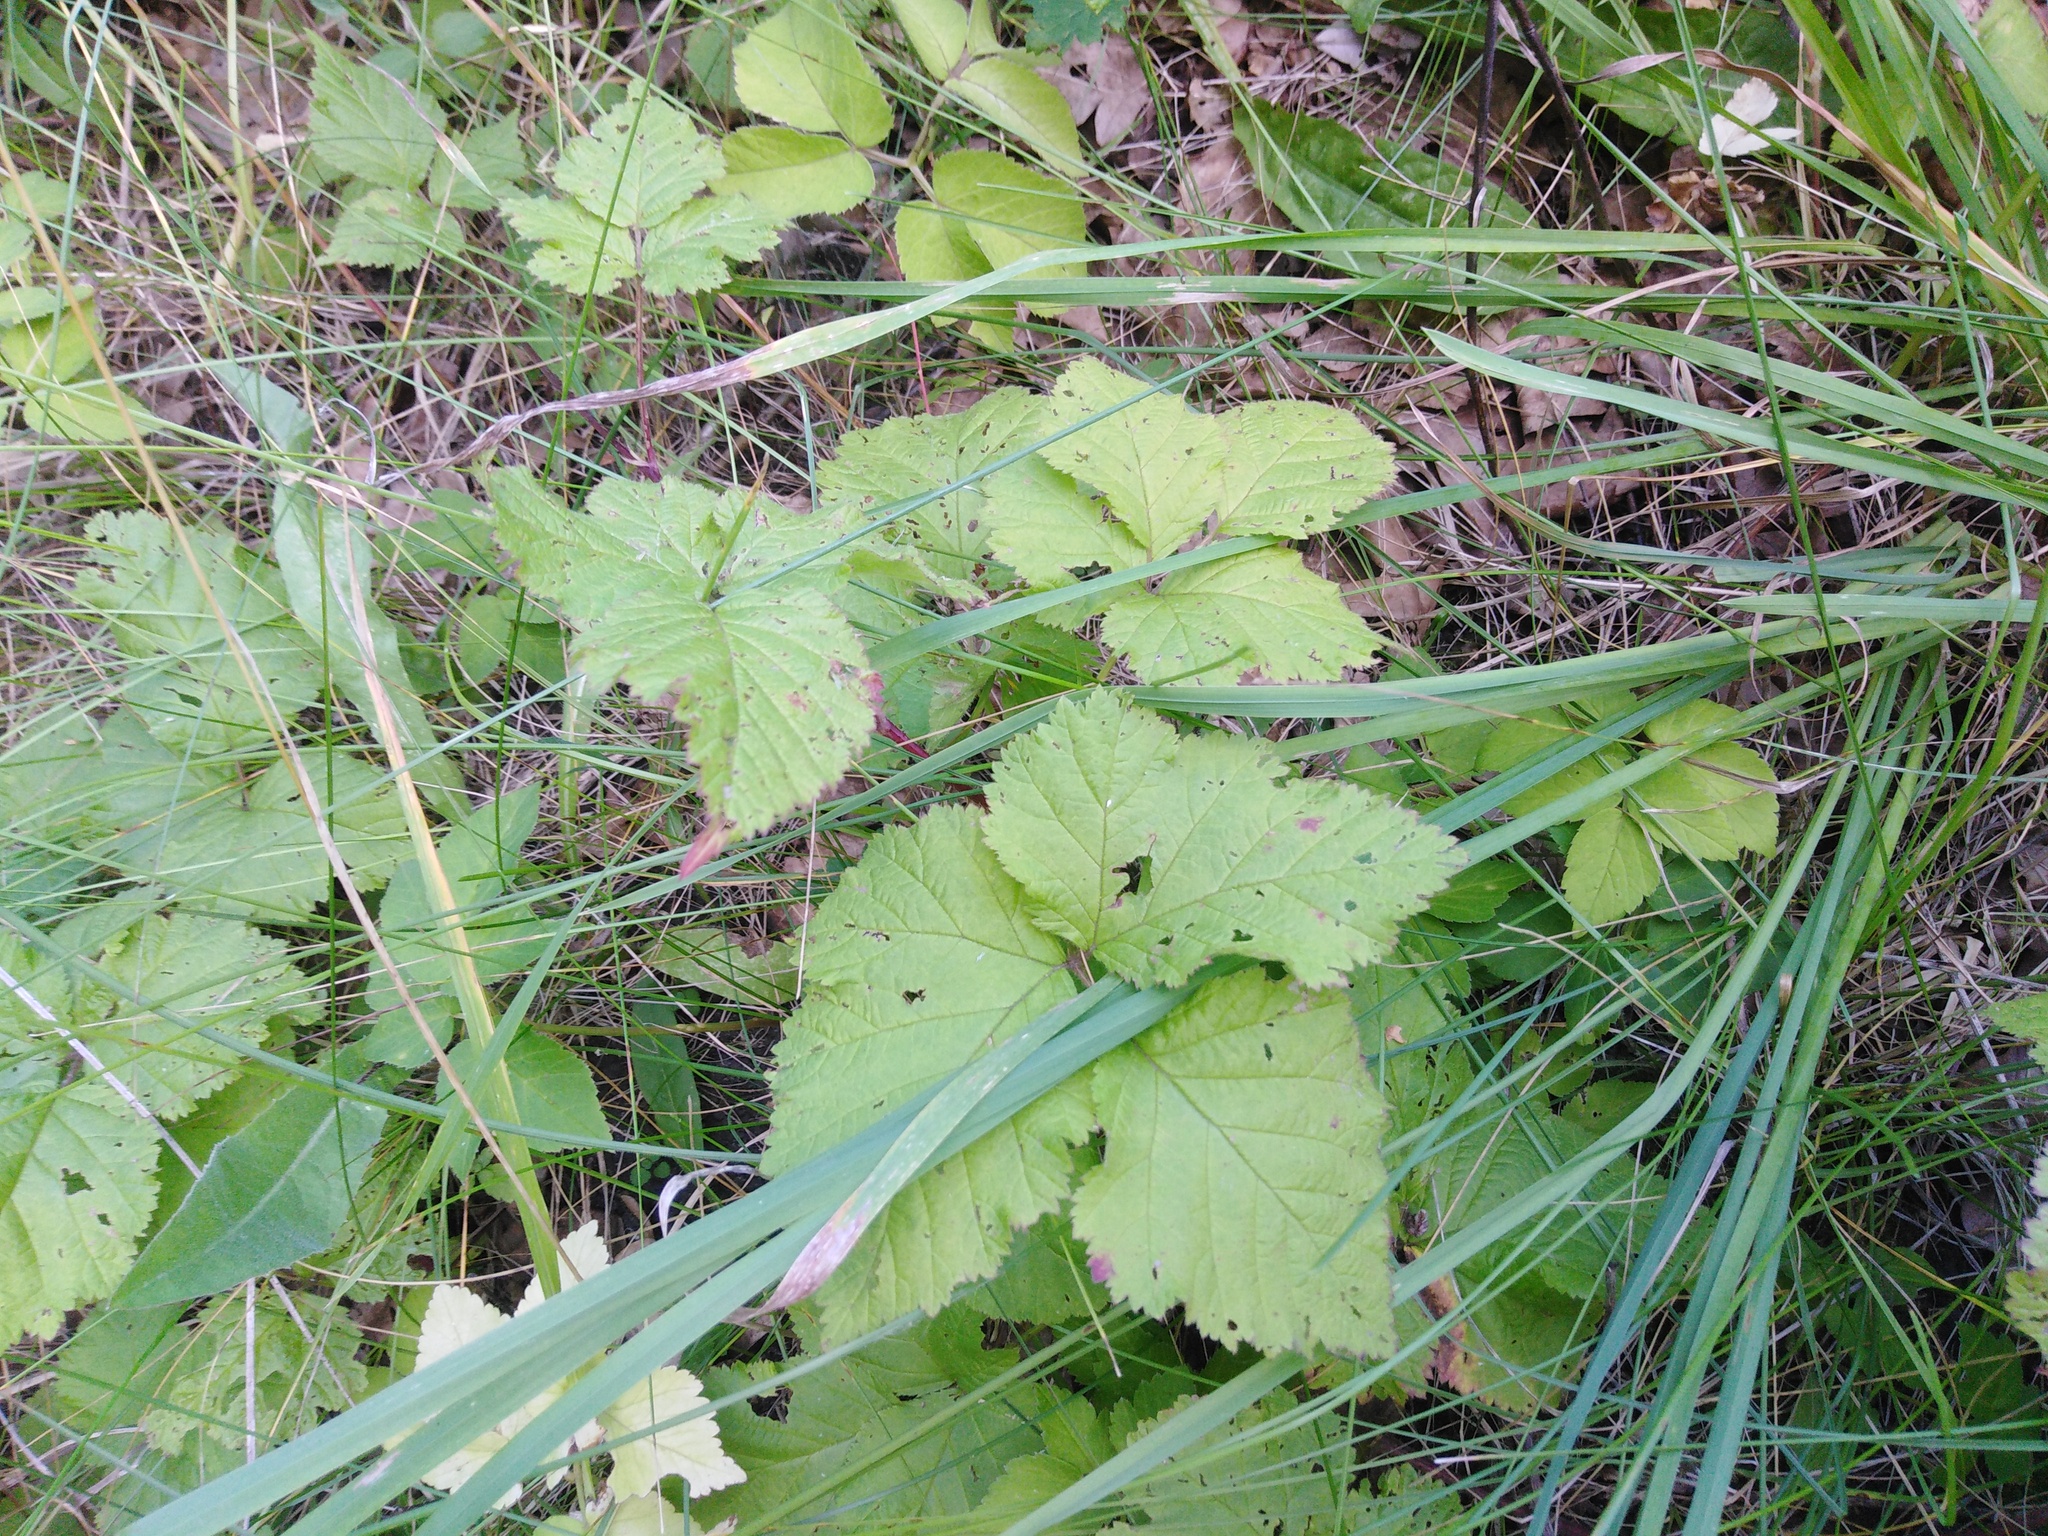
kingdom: Plantae
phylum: Tracheophyta
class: Magnoliopsida
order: Rosales
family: Rosaceae
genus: Rubus
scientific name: Rubus saxatilis
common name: Stone bramble
